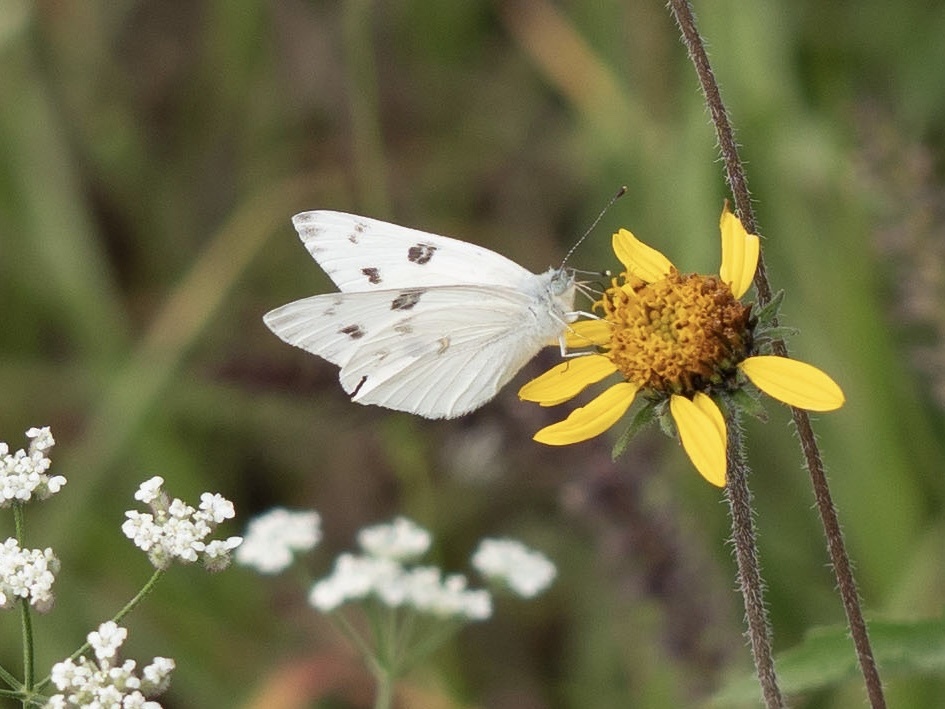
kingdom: Animalia
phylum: Arthropoda
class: Insecta
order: Lepidoptera
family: Pieridae
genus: Pontia
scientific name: Pontia protodice
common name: Checkered white
